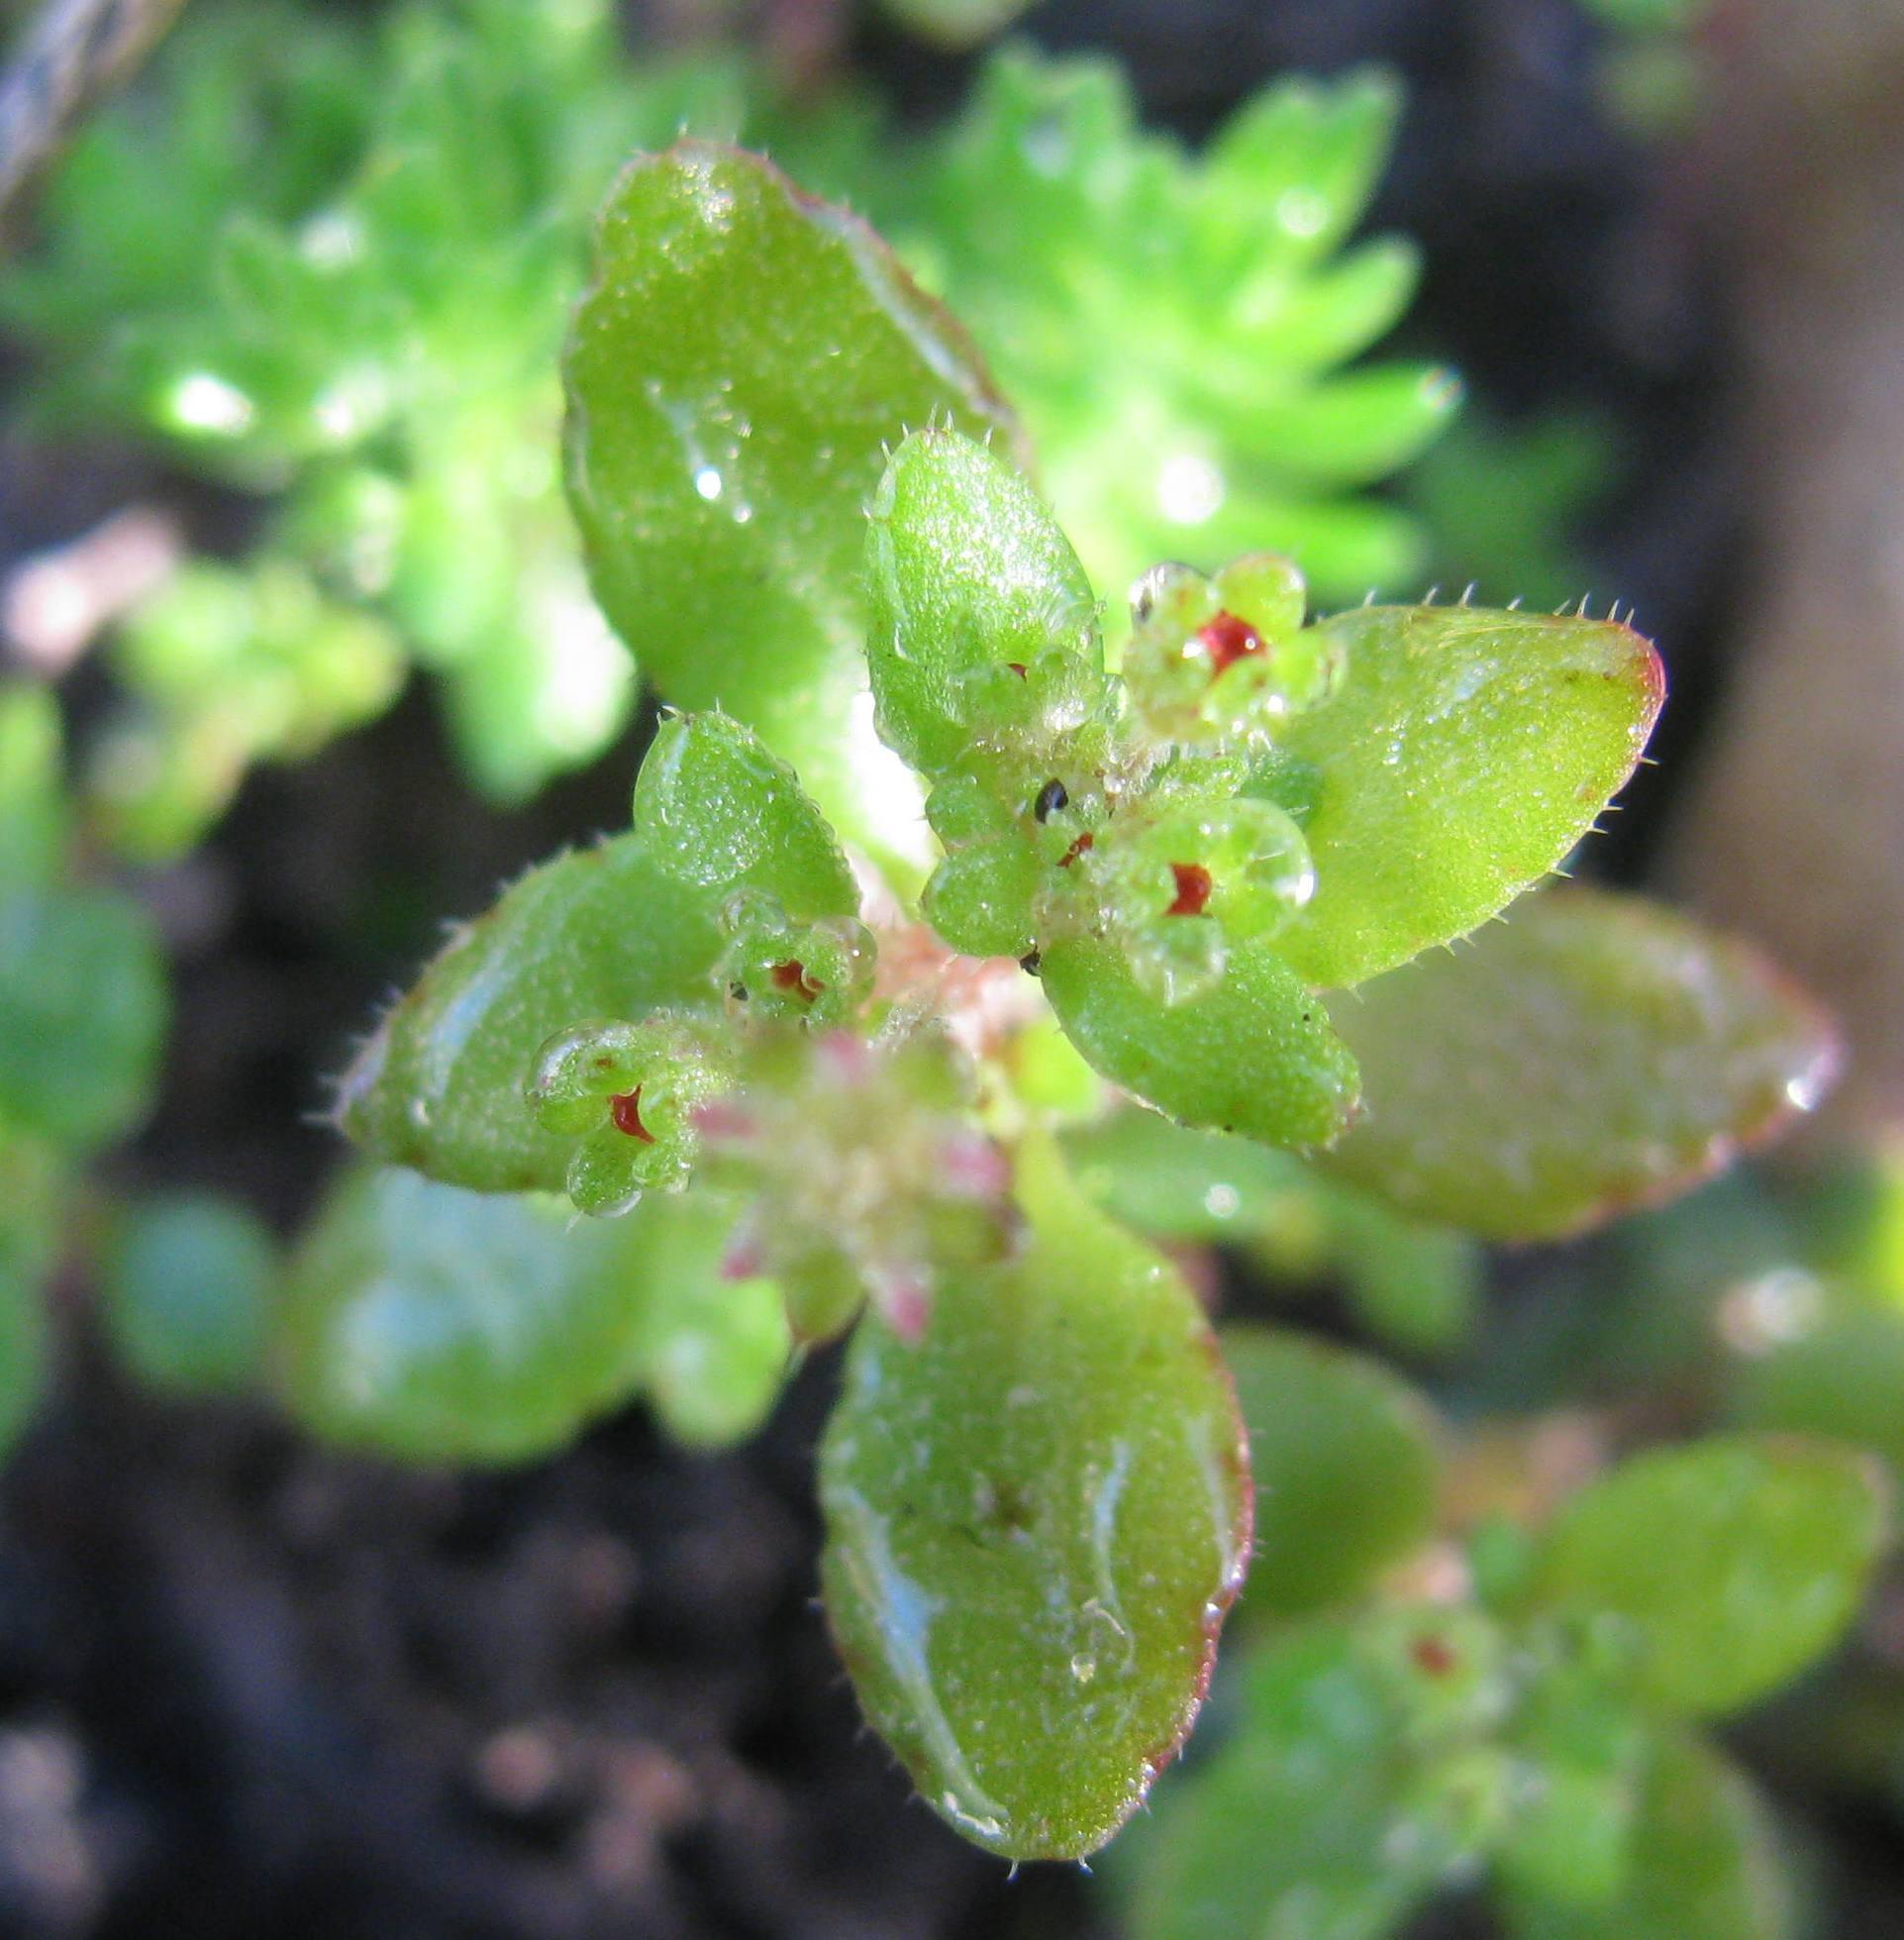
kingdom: Plantae
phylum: Tracheophyta
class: Magnoliopsida
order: Saxifragales
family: Crassulaceae
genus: Crassula
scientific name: Crassula strigosa
